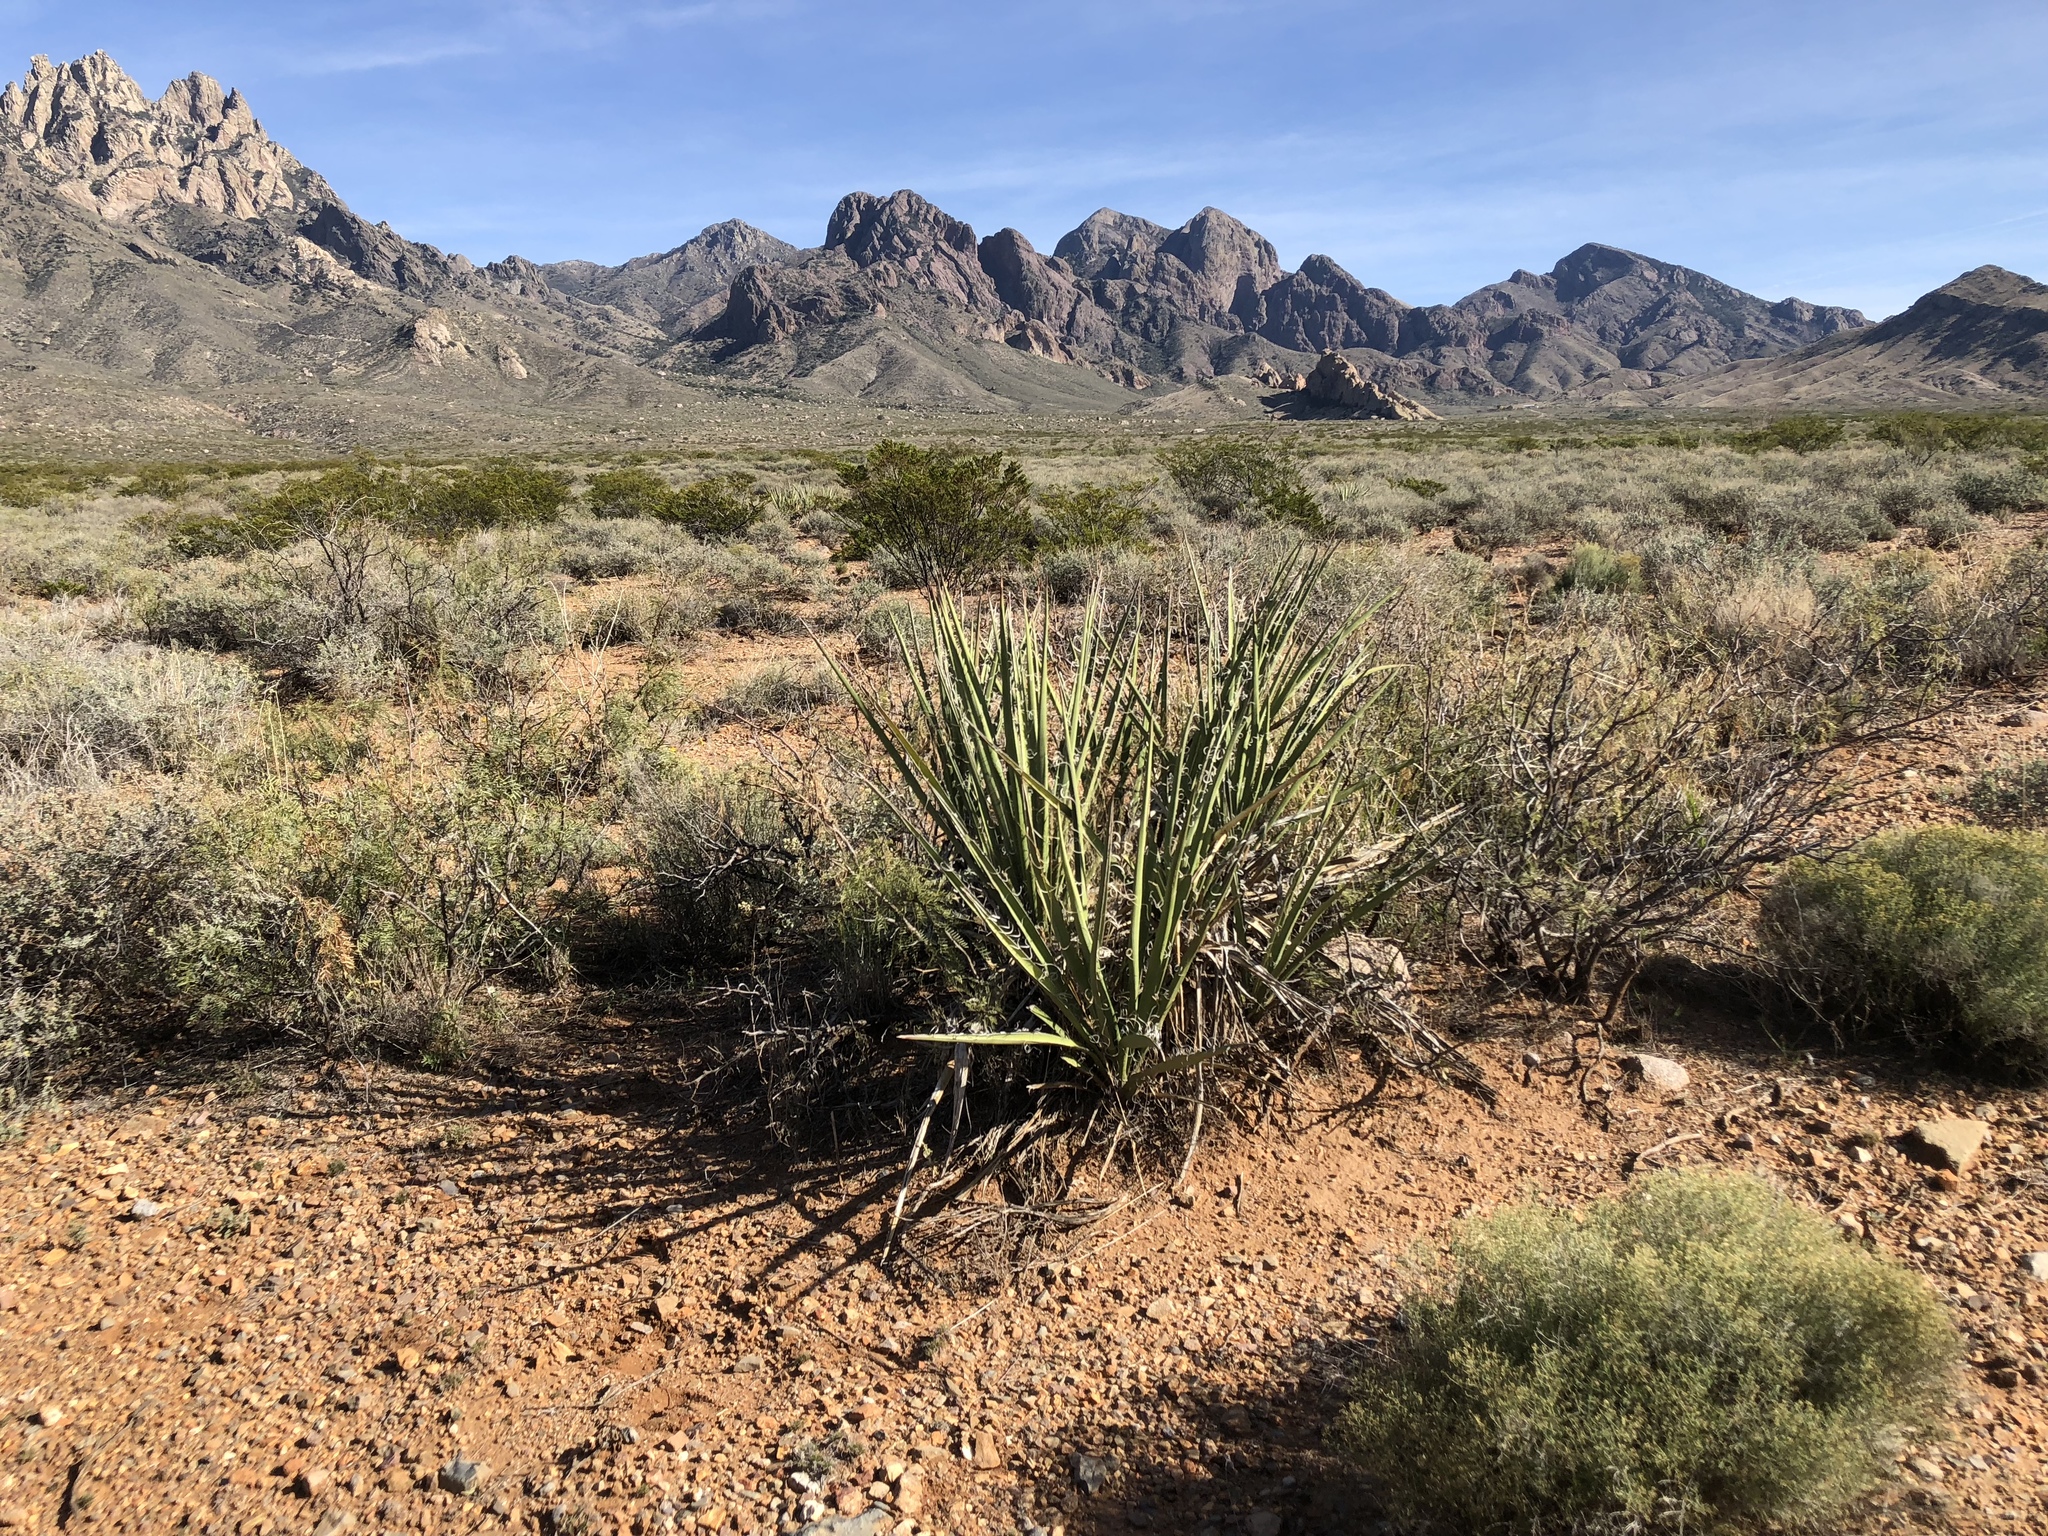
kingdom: Plantae
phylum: Tracheophyta
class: Liliopsida
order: Asparagales
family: Asparagaceae
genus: Yucca
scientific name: Yucca baccata
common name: Banana yucca
